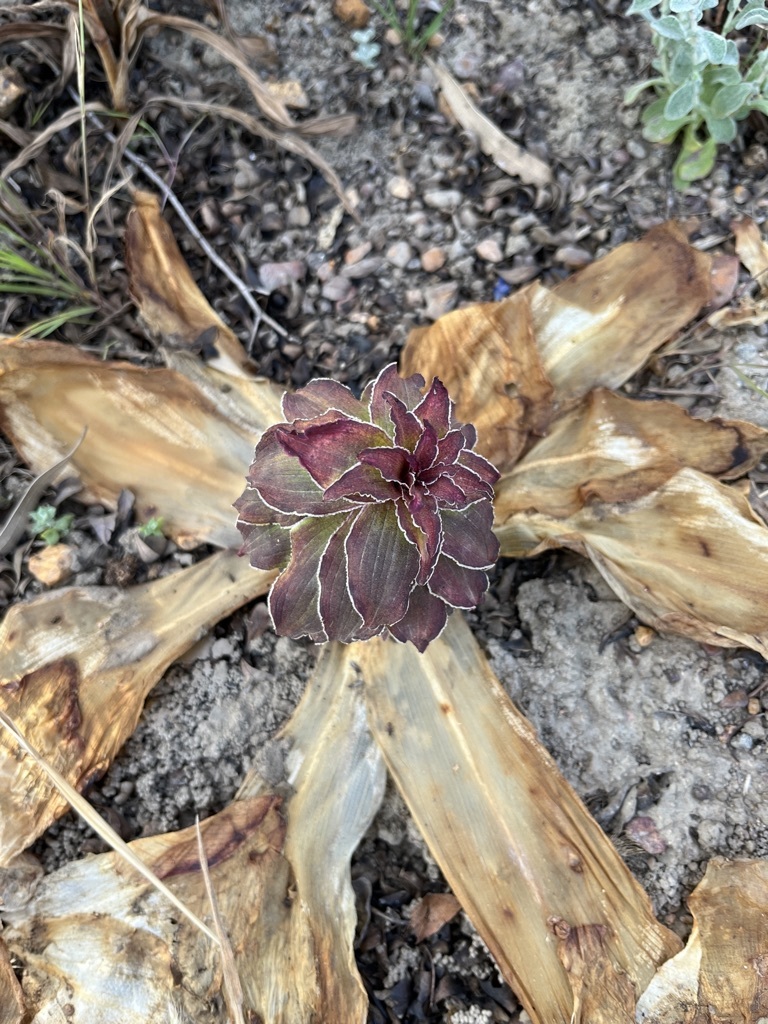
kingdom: Plantae
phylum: Tracheophyta
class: Liliopsida
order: Asparagales
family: Asparagaceae
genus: Eucomis
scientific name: Eucomis regia
